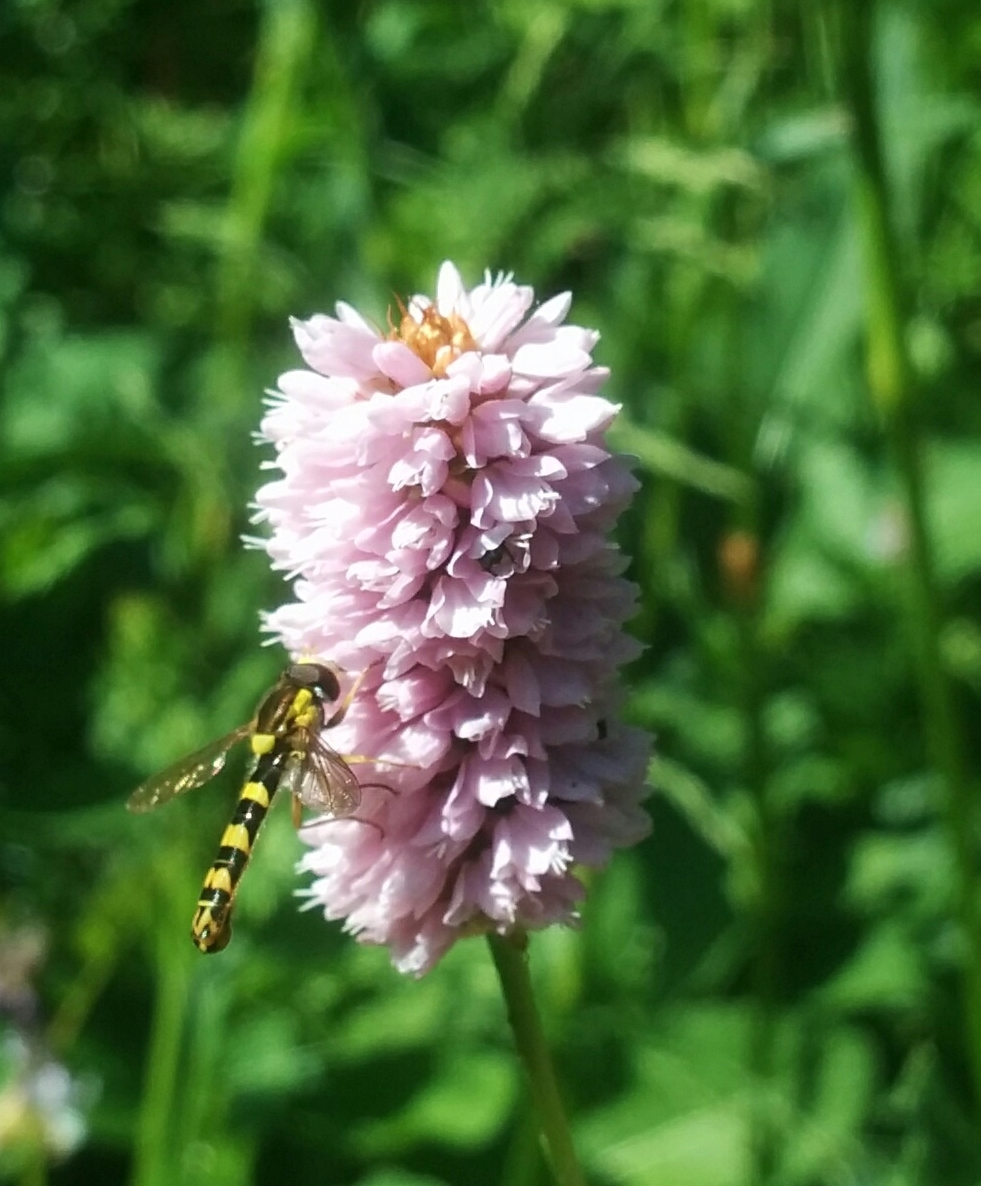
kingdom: Animalia
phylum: Arthropoda
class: Insecta
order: Diptera
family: Syrphidae
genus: Sphaerophoria
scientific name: Sphaerophoria scripta
